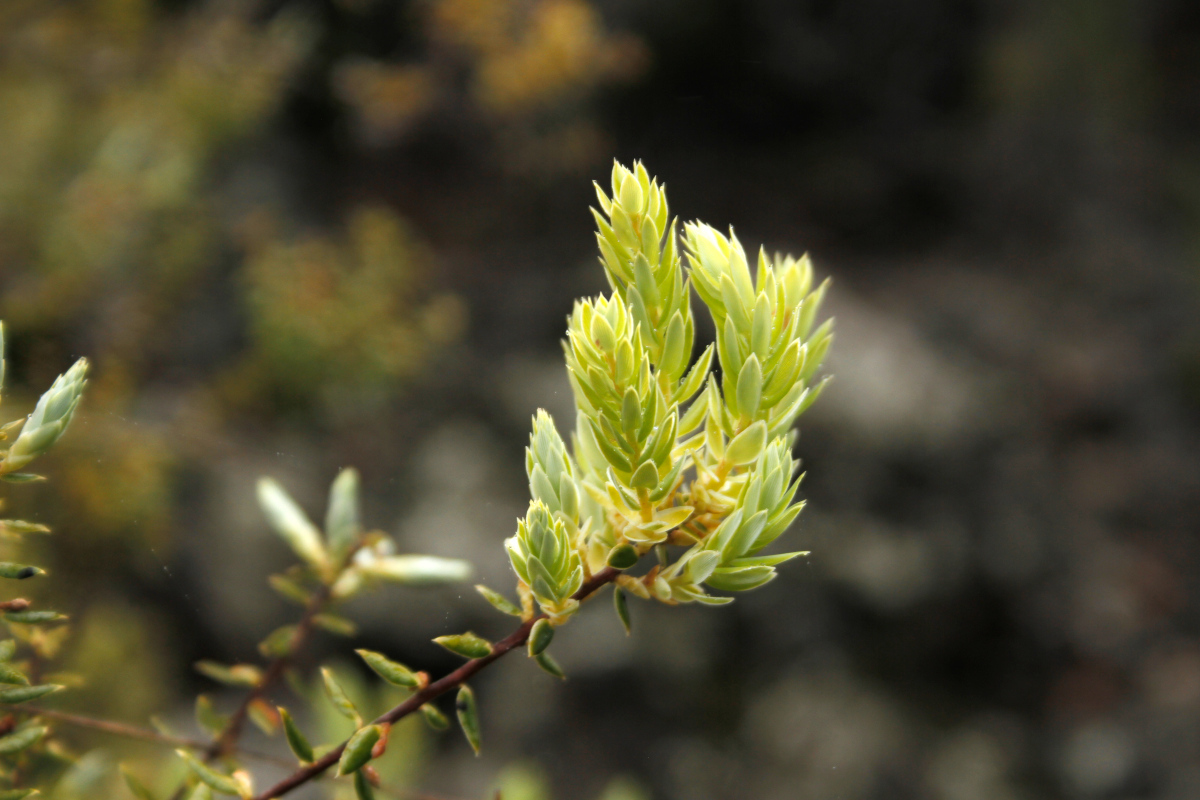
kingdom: Plantae
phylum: Tracheophyta
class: Magnoliopsida
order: Ericales
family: Ericaceae
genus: Leptecophylla
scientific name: Leptecophylla tameiameiae
